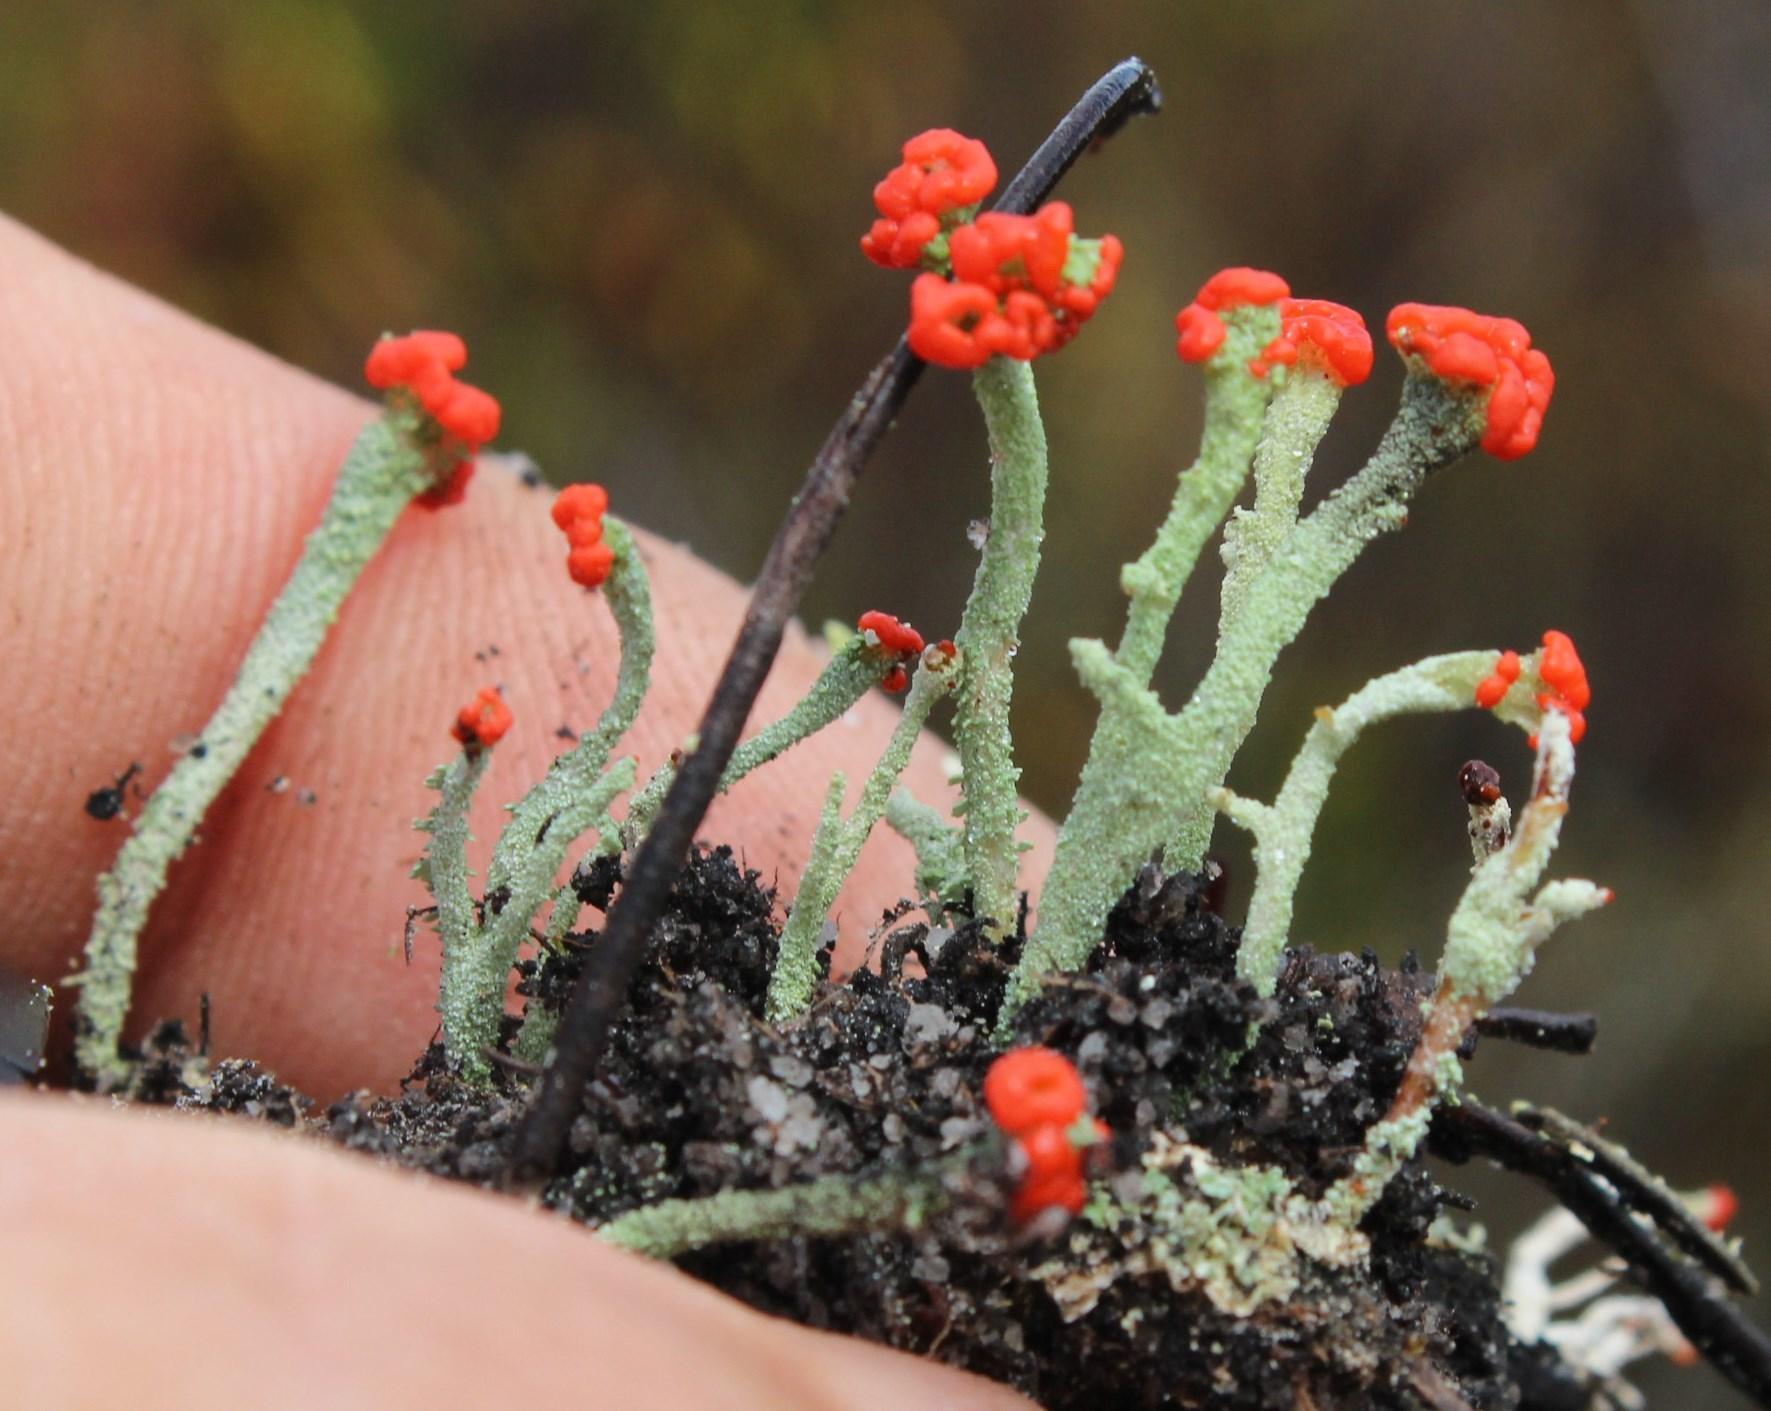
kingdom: Fungi
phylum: Ascomycota
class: Lecanoromycetes
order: Lecanorales
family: Cladoniaceae
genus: Cladonia
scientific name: Cladonia macilenta
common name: Lipstick powderhorn
